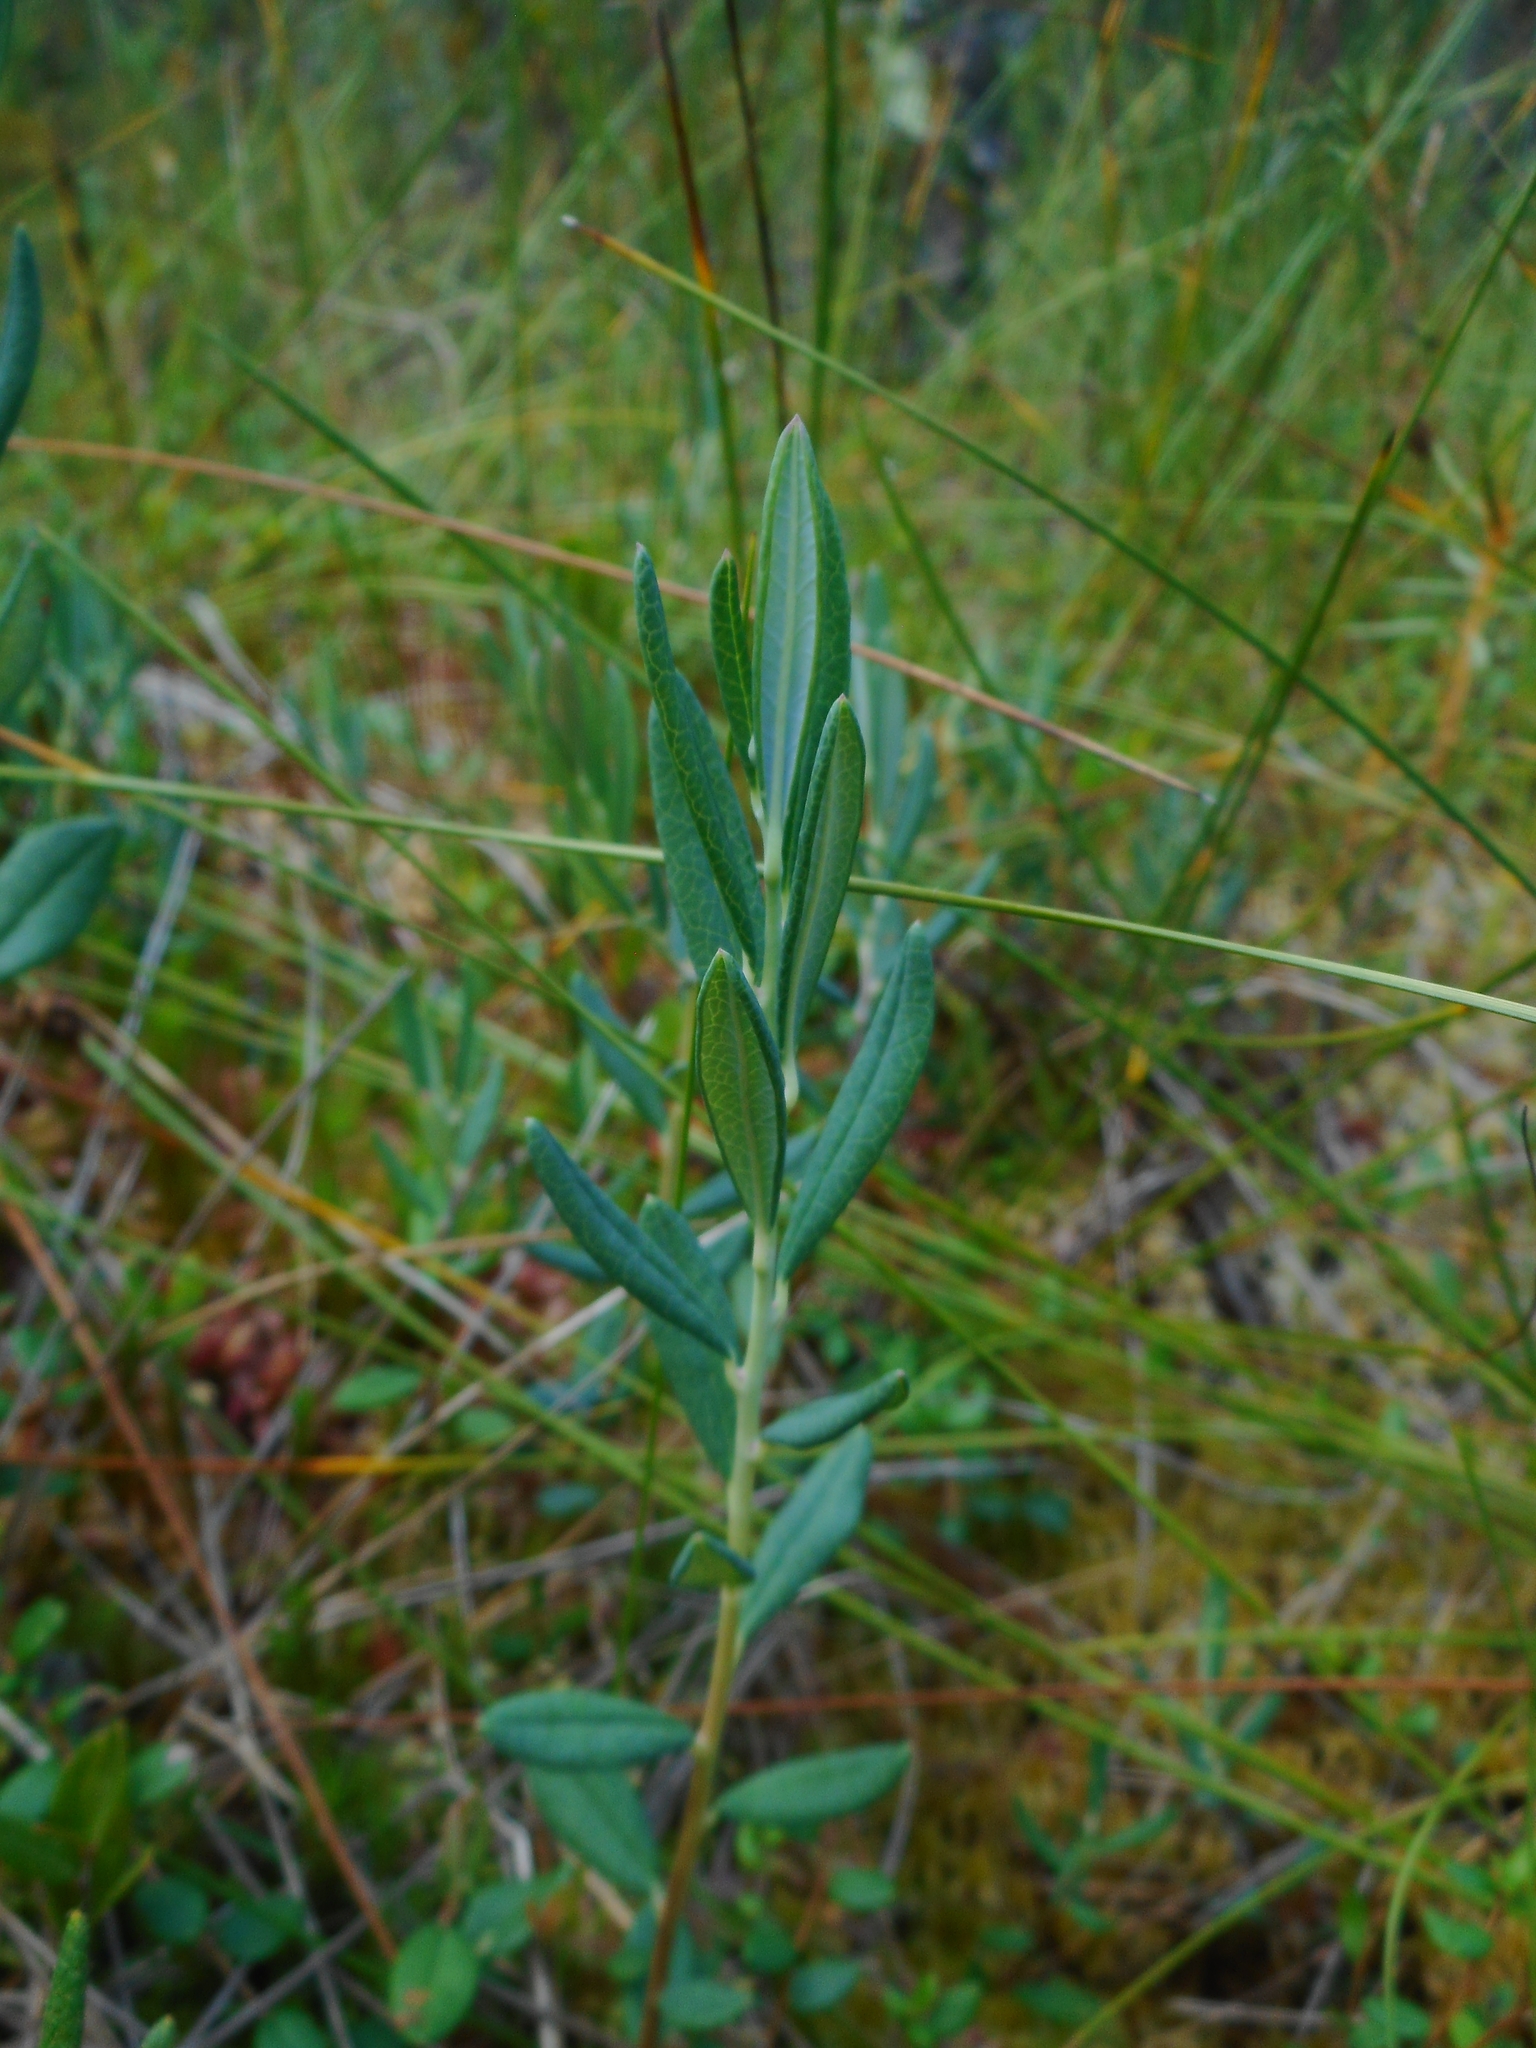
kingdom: Plantae
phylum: Tracheophyta
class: Magnoliopsida
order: Ericales
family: Ericaceae
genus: Andromeda
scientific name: Andromeda polifolia
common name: Bog-rosemary
